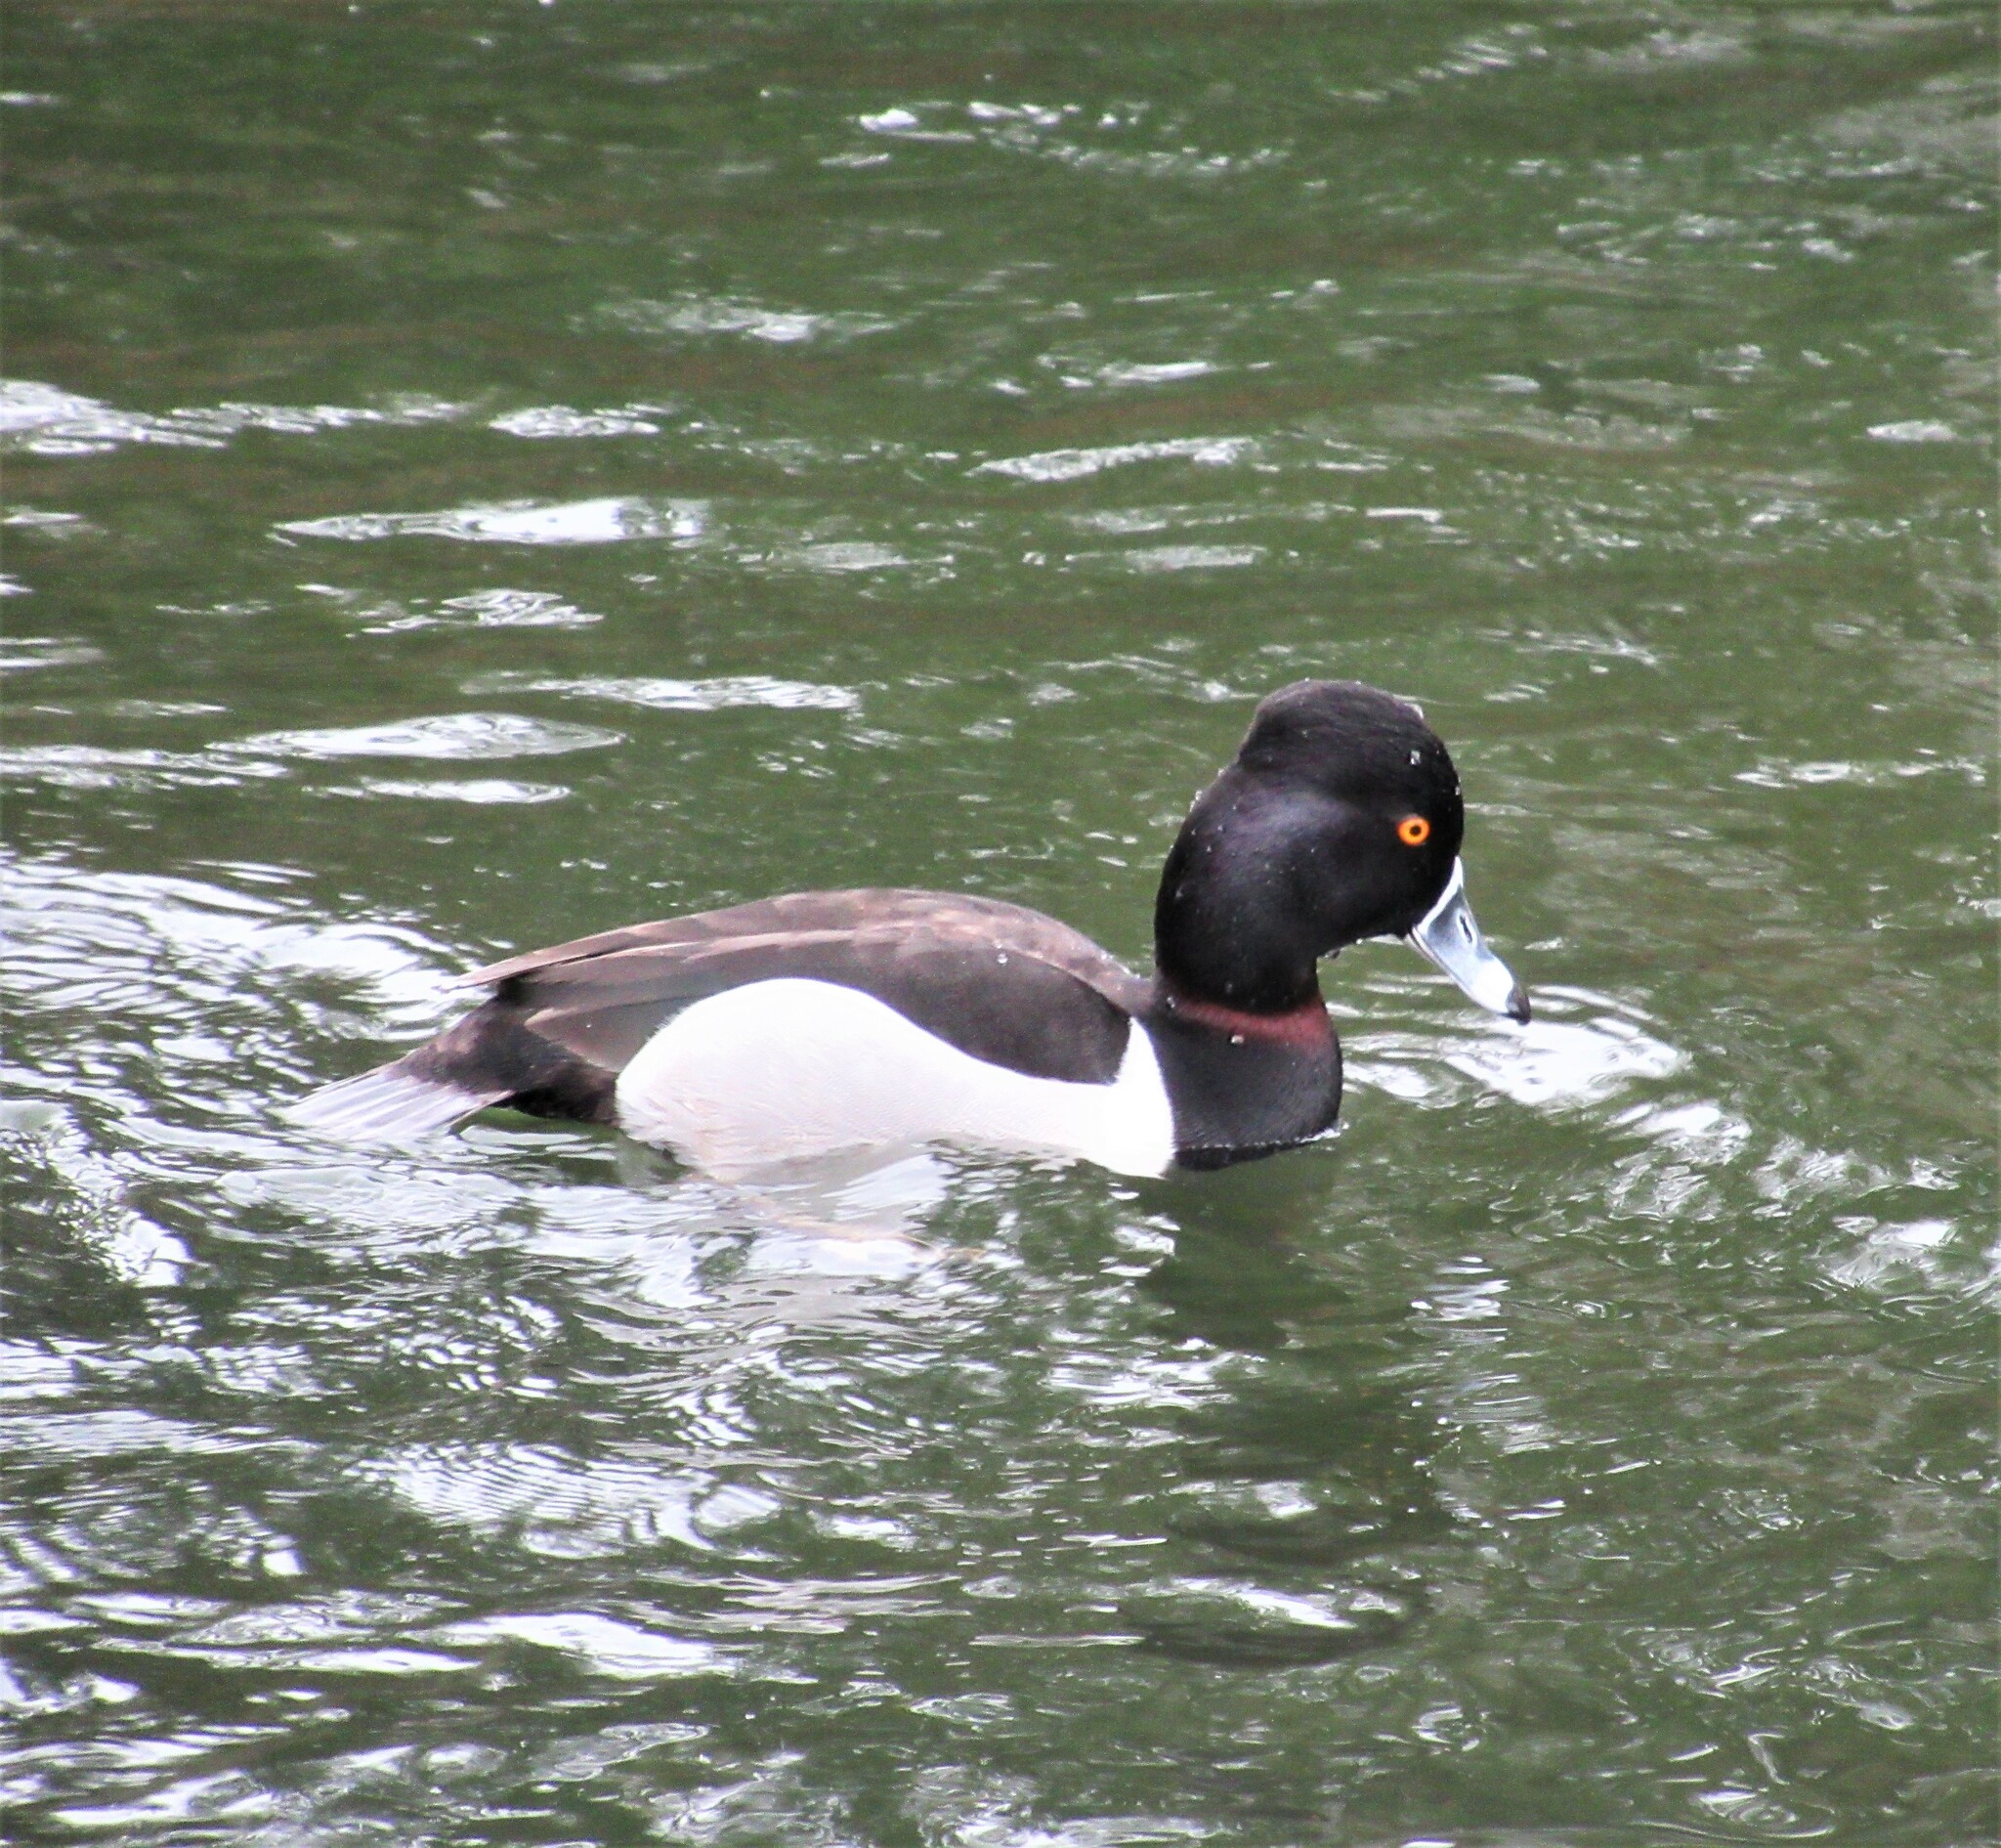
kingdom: Animalia
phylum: Chordata
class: Aves
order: Anseriformes
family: Anatidae
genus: Aythya
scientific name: Aythya collaris
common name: Ring-necked duck
